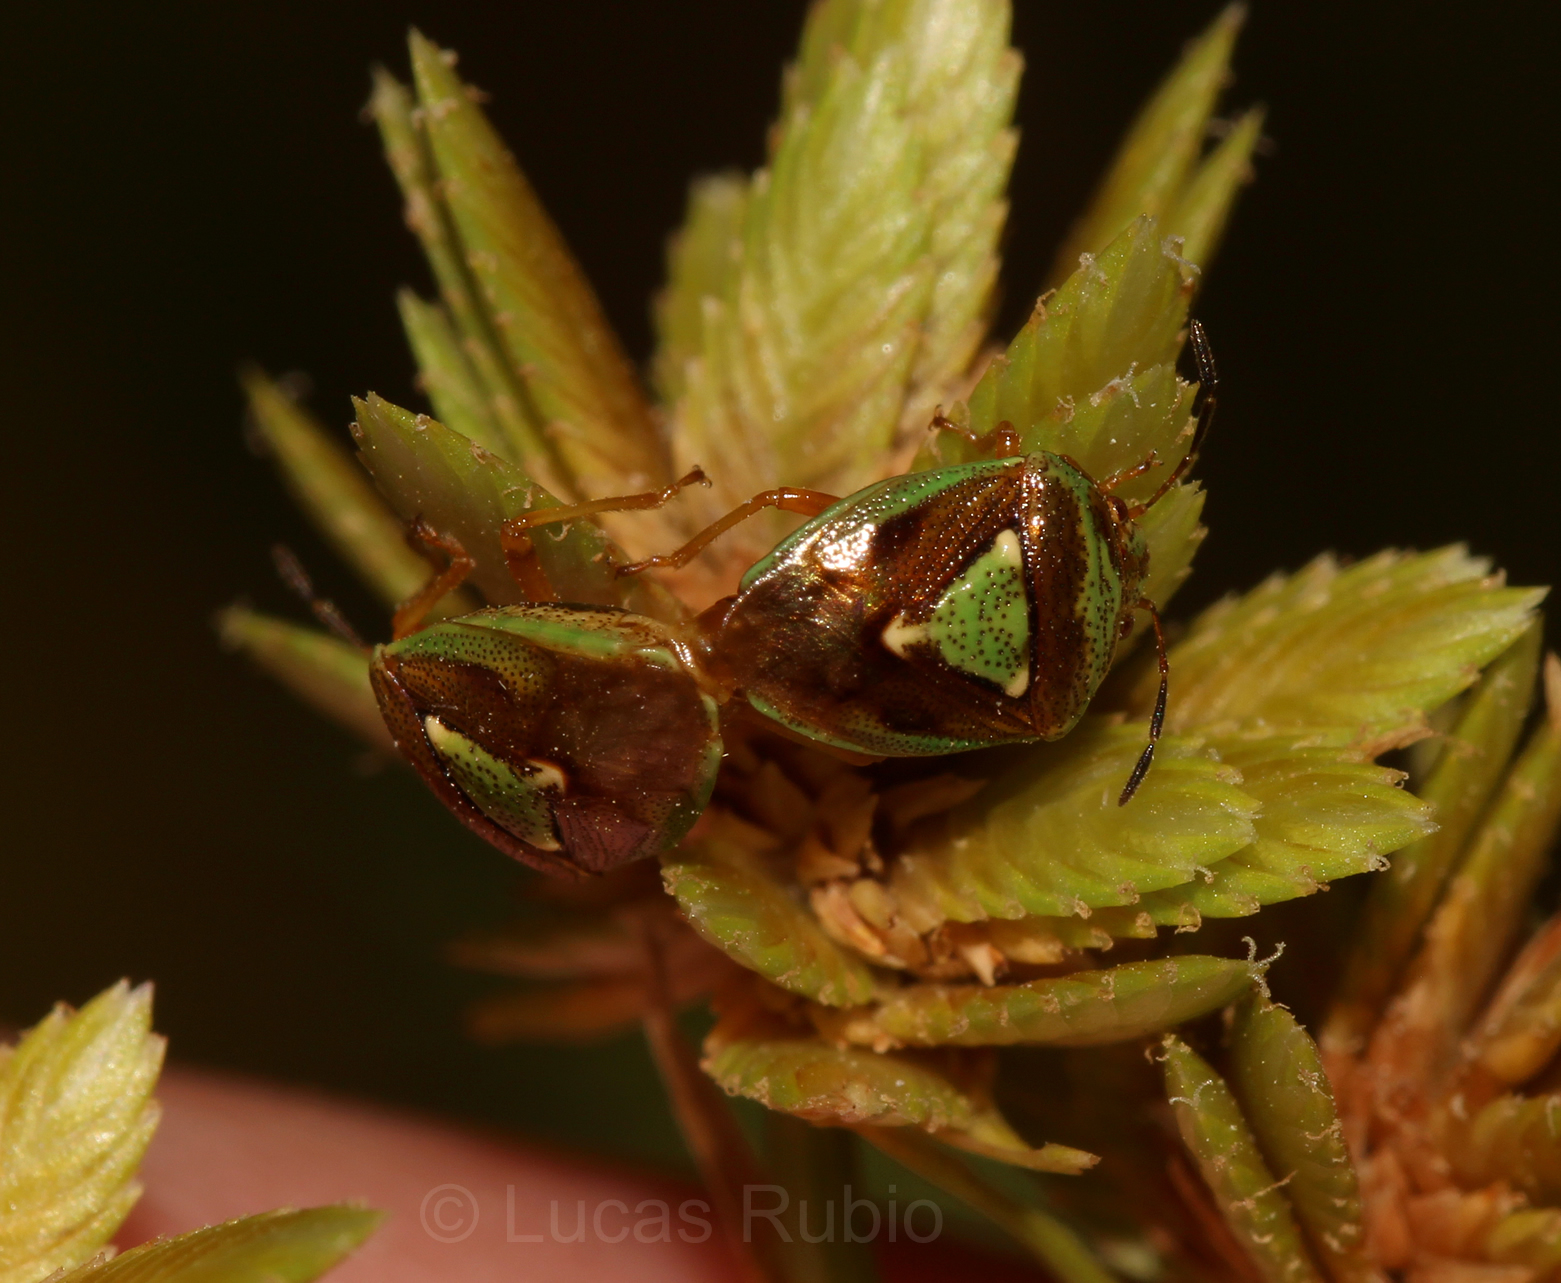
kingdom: Animalia
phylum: Arthropoda
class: Insecta
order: Hemiptera
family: Acanthosomatidae
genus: Hellica
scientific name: Hellica nitida
